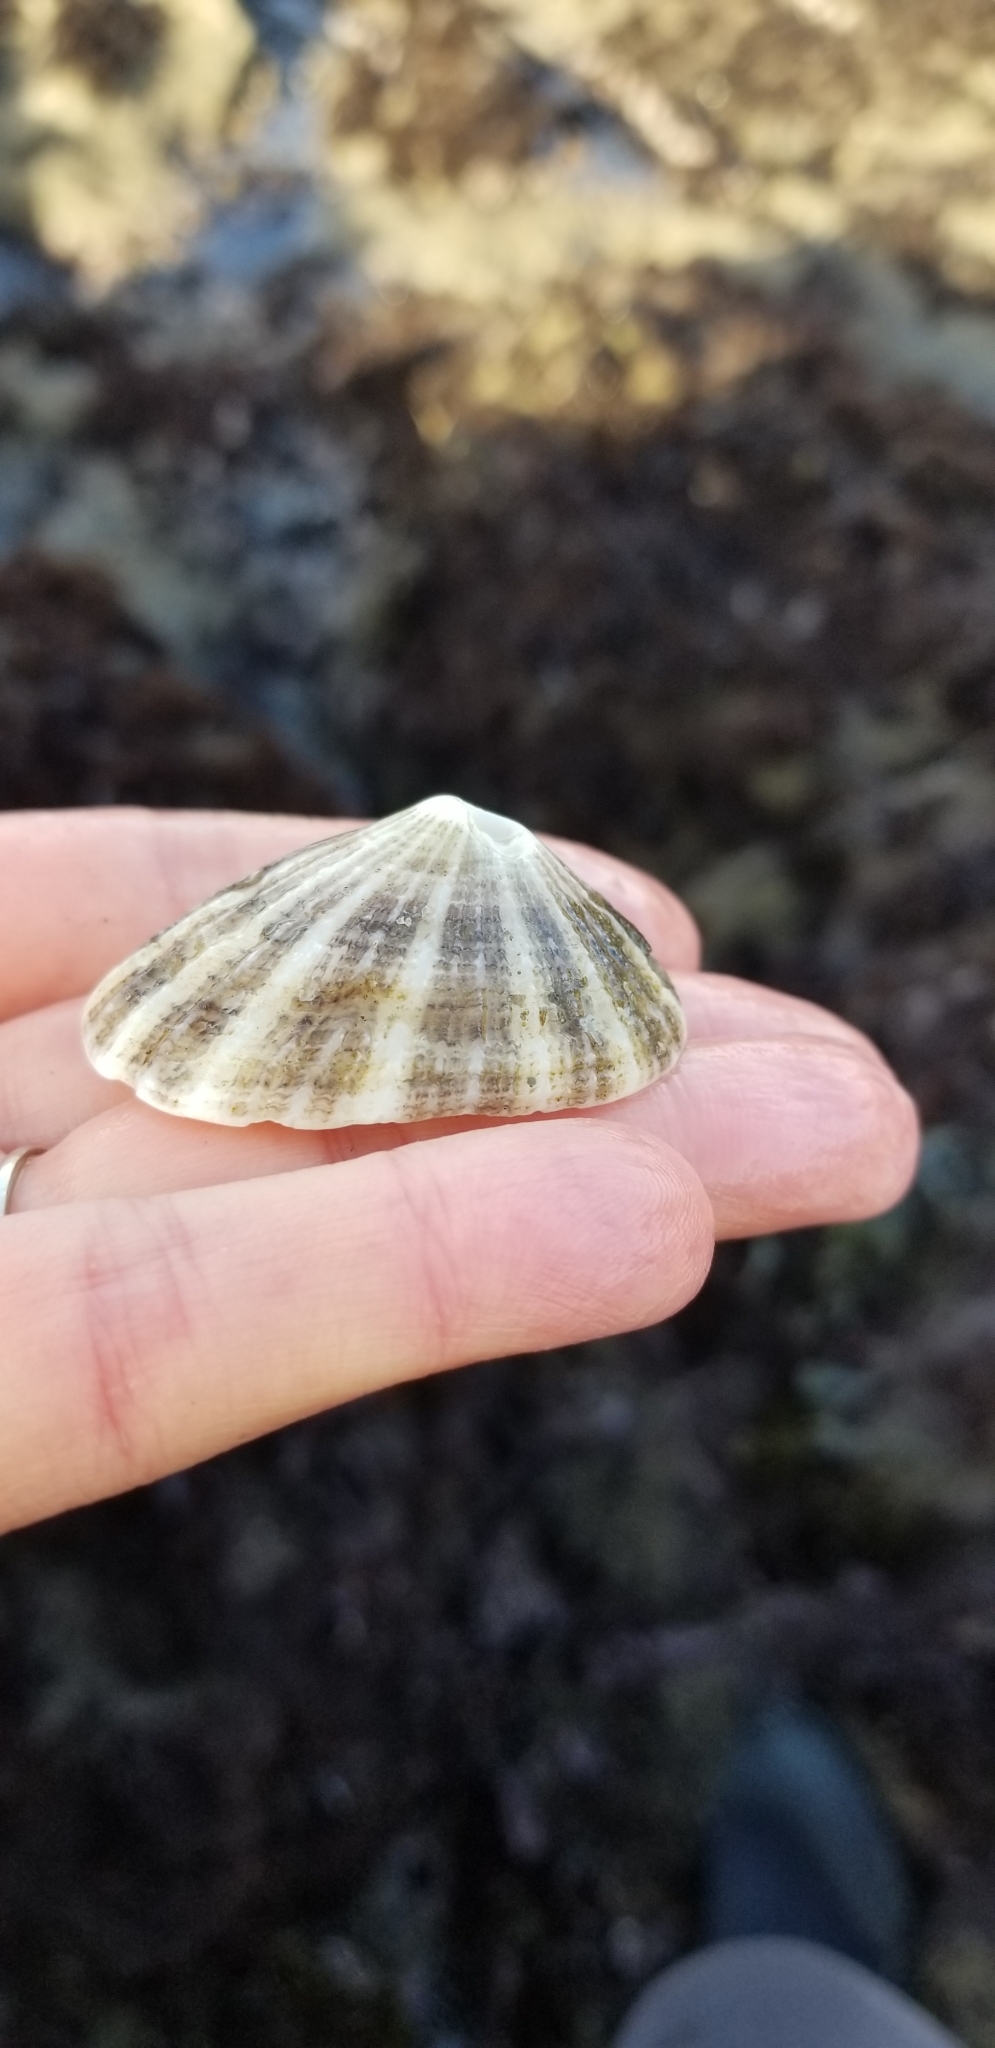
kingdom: Animalia
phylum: Mollusca
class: Gastropoda
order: Lepetellida
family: Fissurellidae
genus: Diodora
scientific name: Diodora aspera
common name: Rough keyhole limpet
